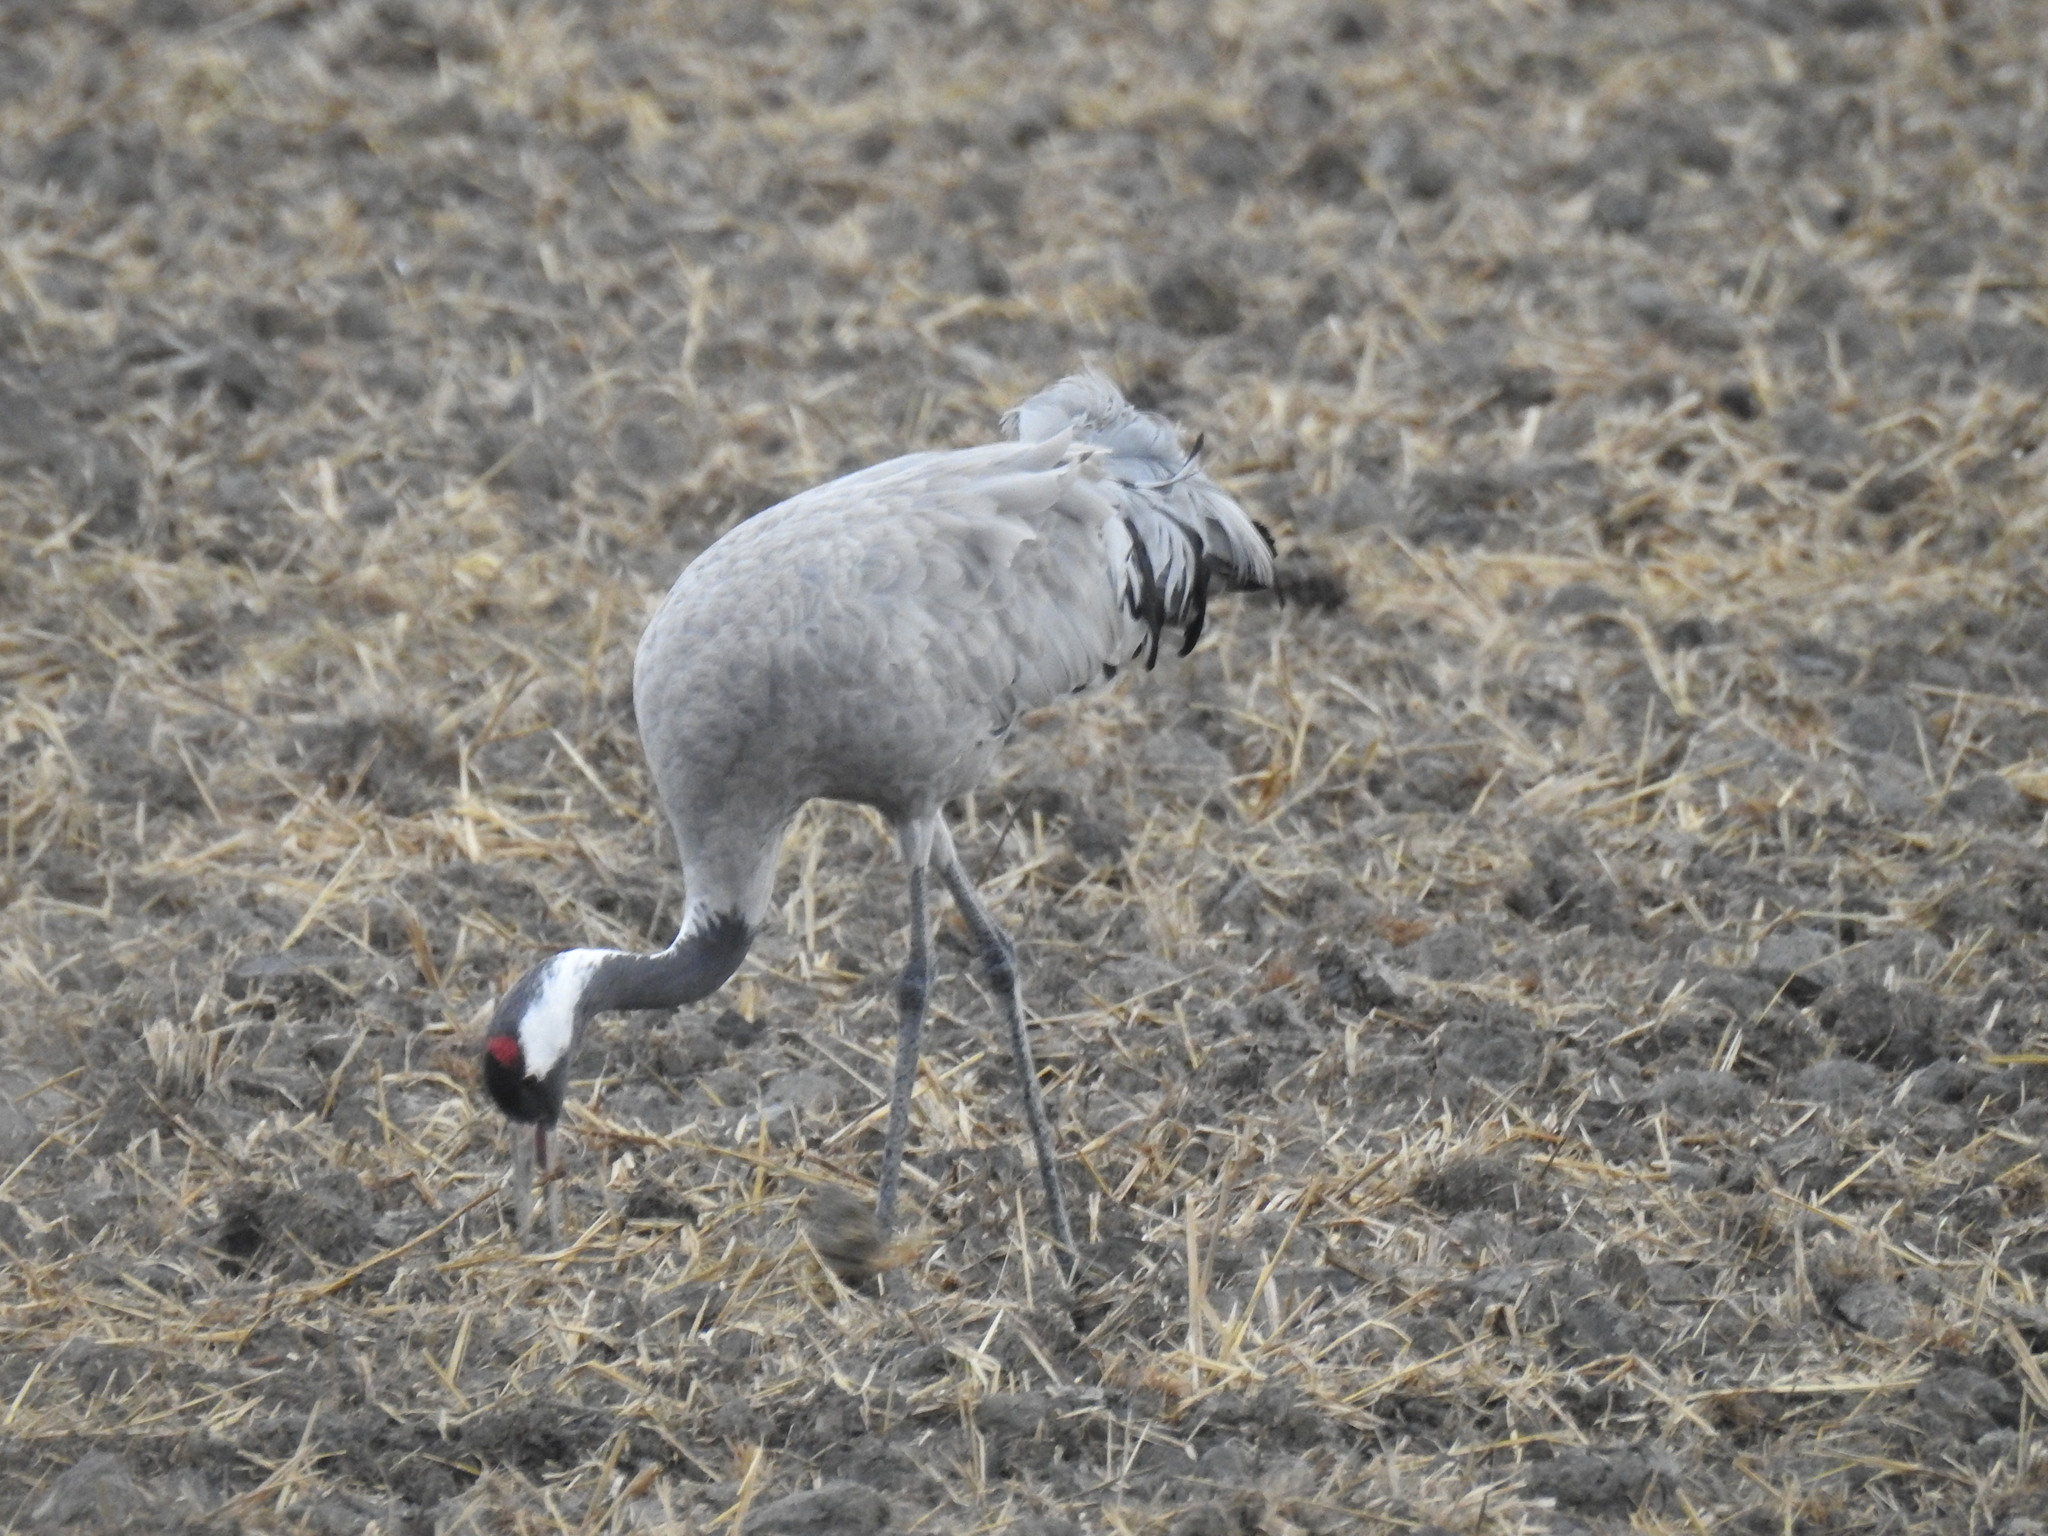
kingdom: Animalia
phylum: Chordata
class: Aves
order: Gruiformes
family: Gruidae
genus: Grus
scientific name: Grus grus
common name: Common crane
